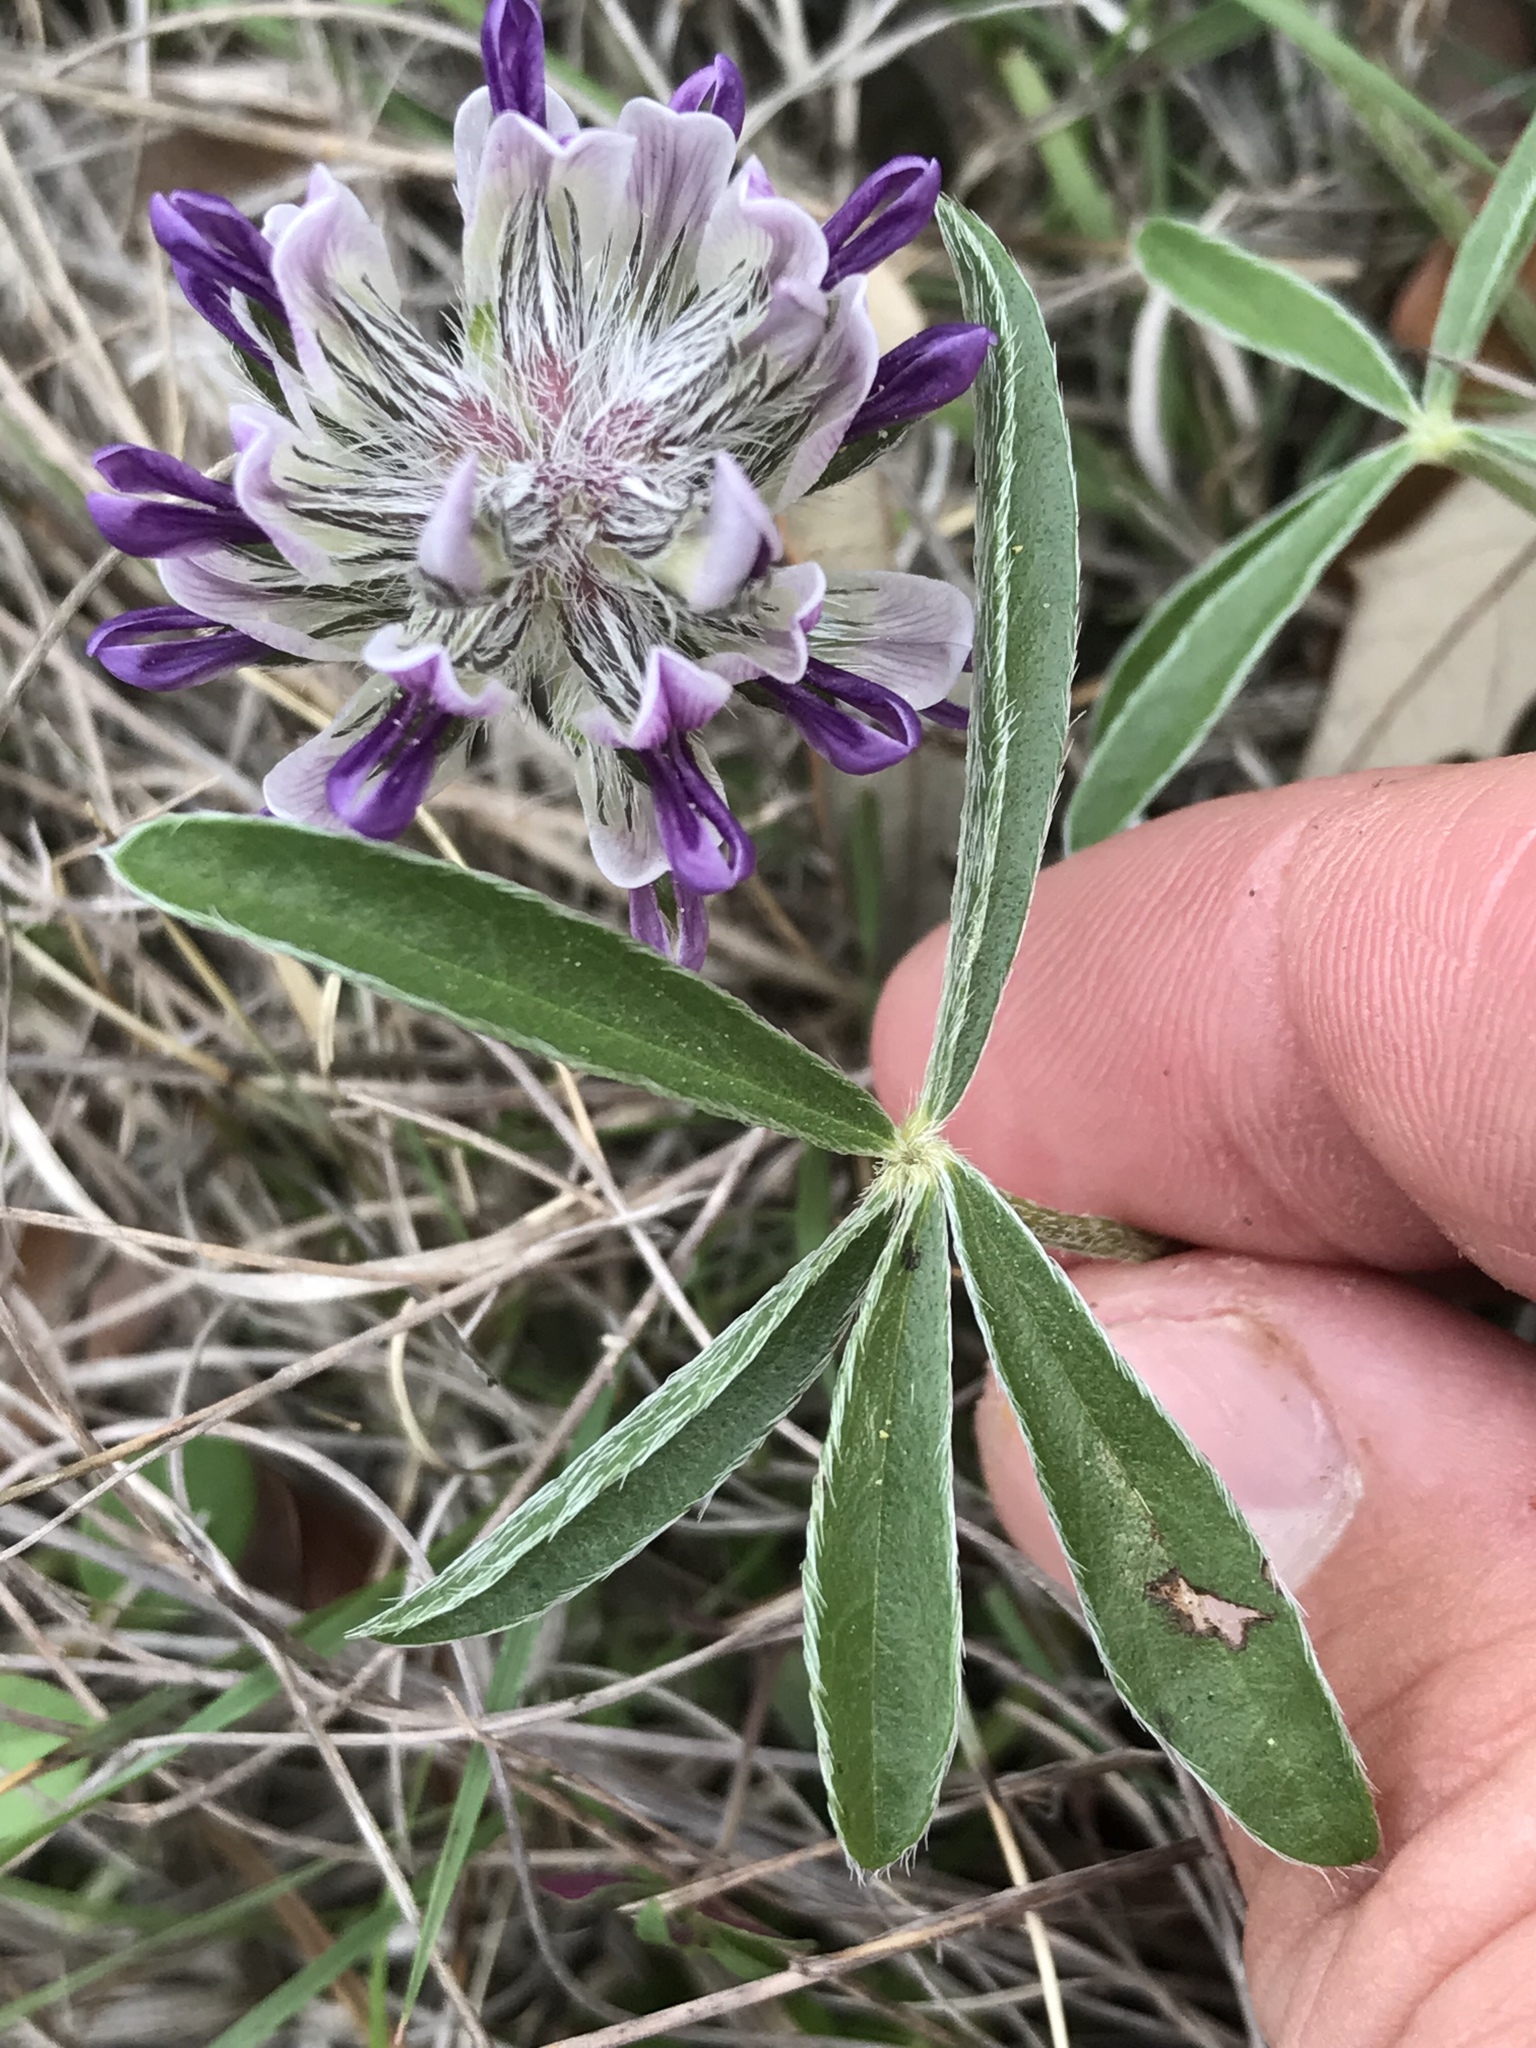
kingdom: Plantae
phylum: Tracheophyta
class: Magnoliopsida
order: Fabales
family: Fabaceae
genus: Pediomelum
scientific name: Pediomelum hypogaeum
